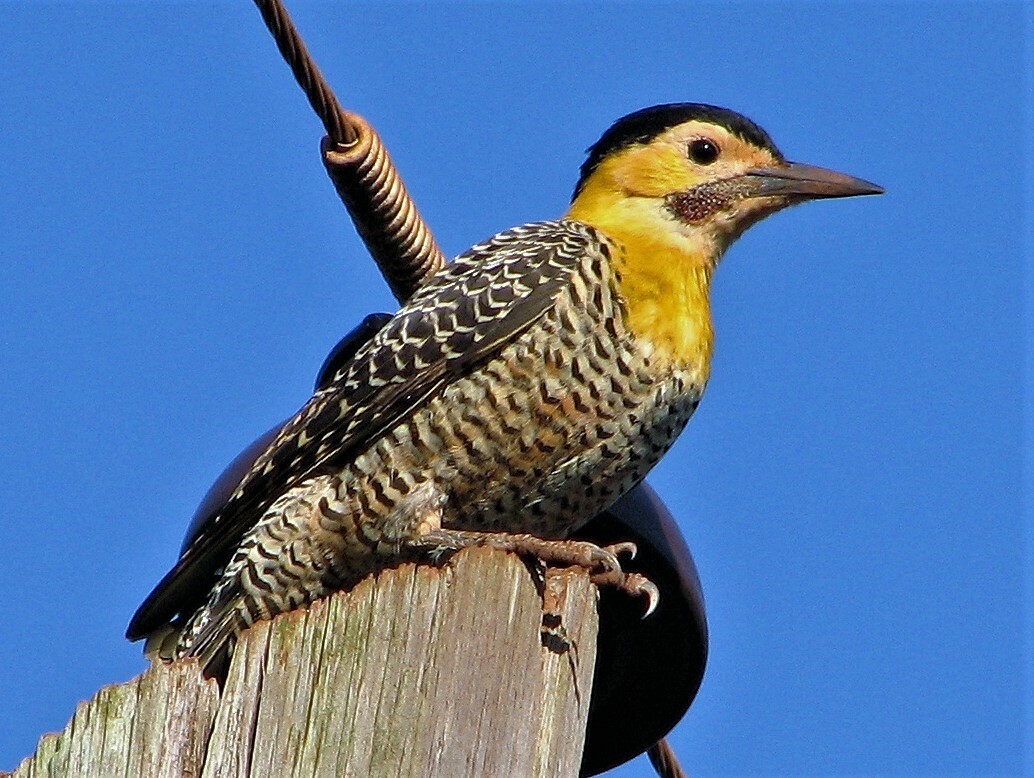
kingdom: Animalia
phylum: Chordata
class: Aves
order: Piciformes
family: Picidae
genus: Colaptes
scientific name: Colaptes campestris
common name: Campo flicker
